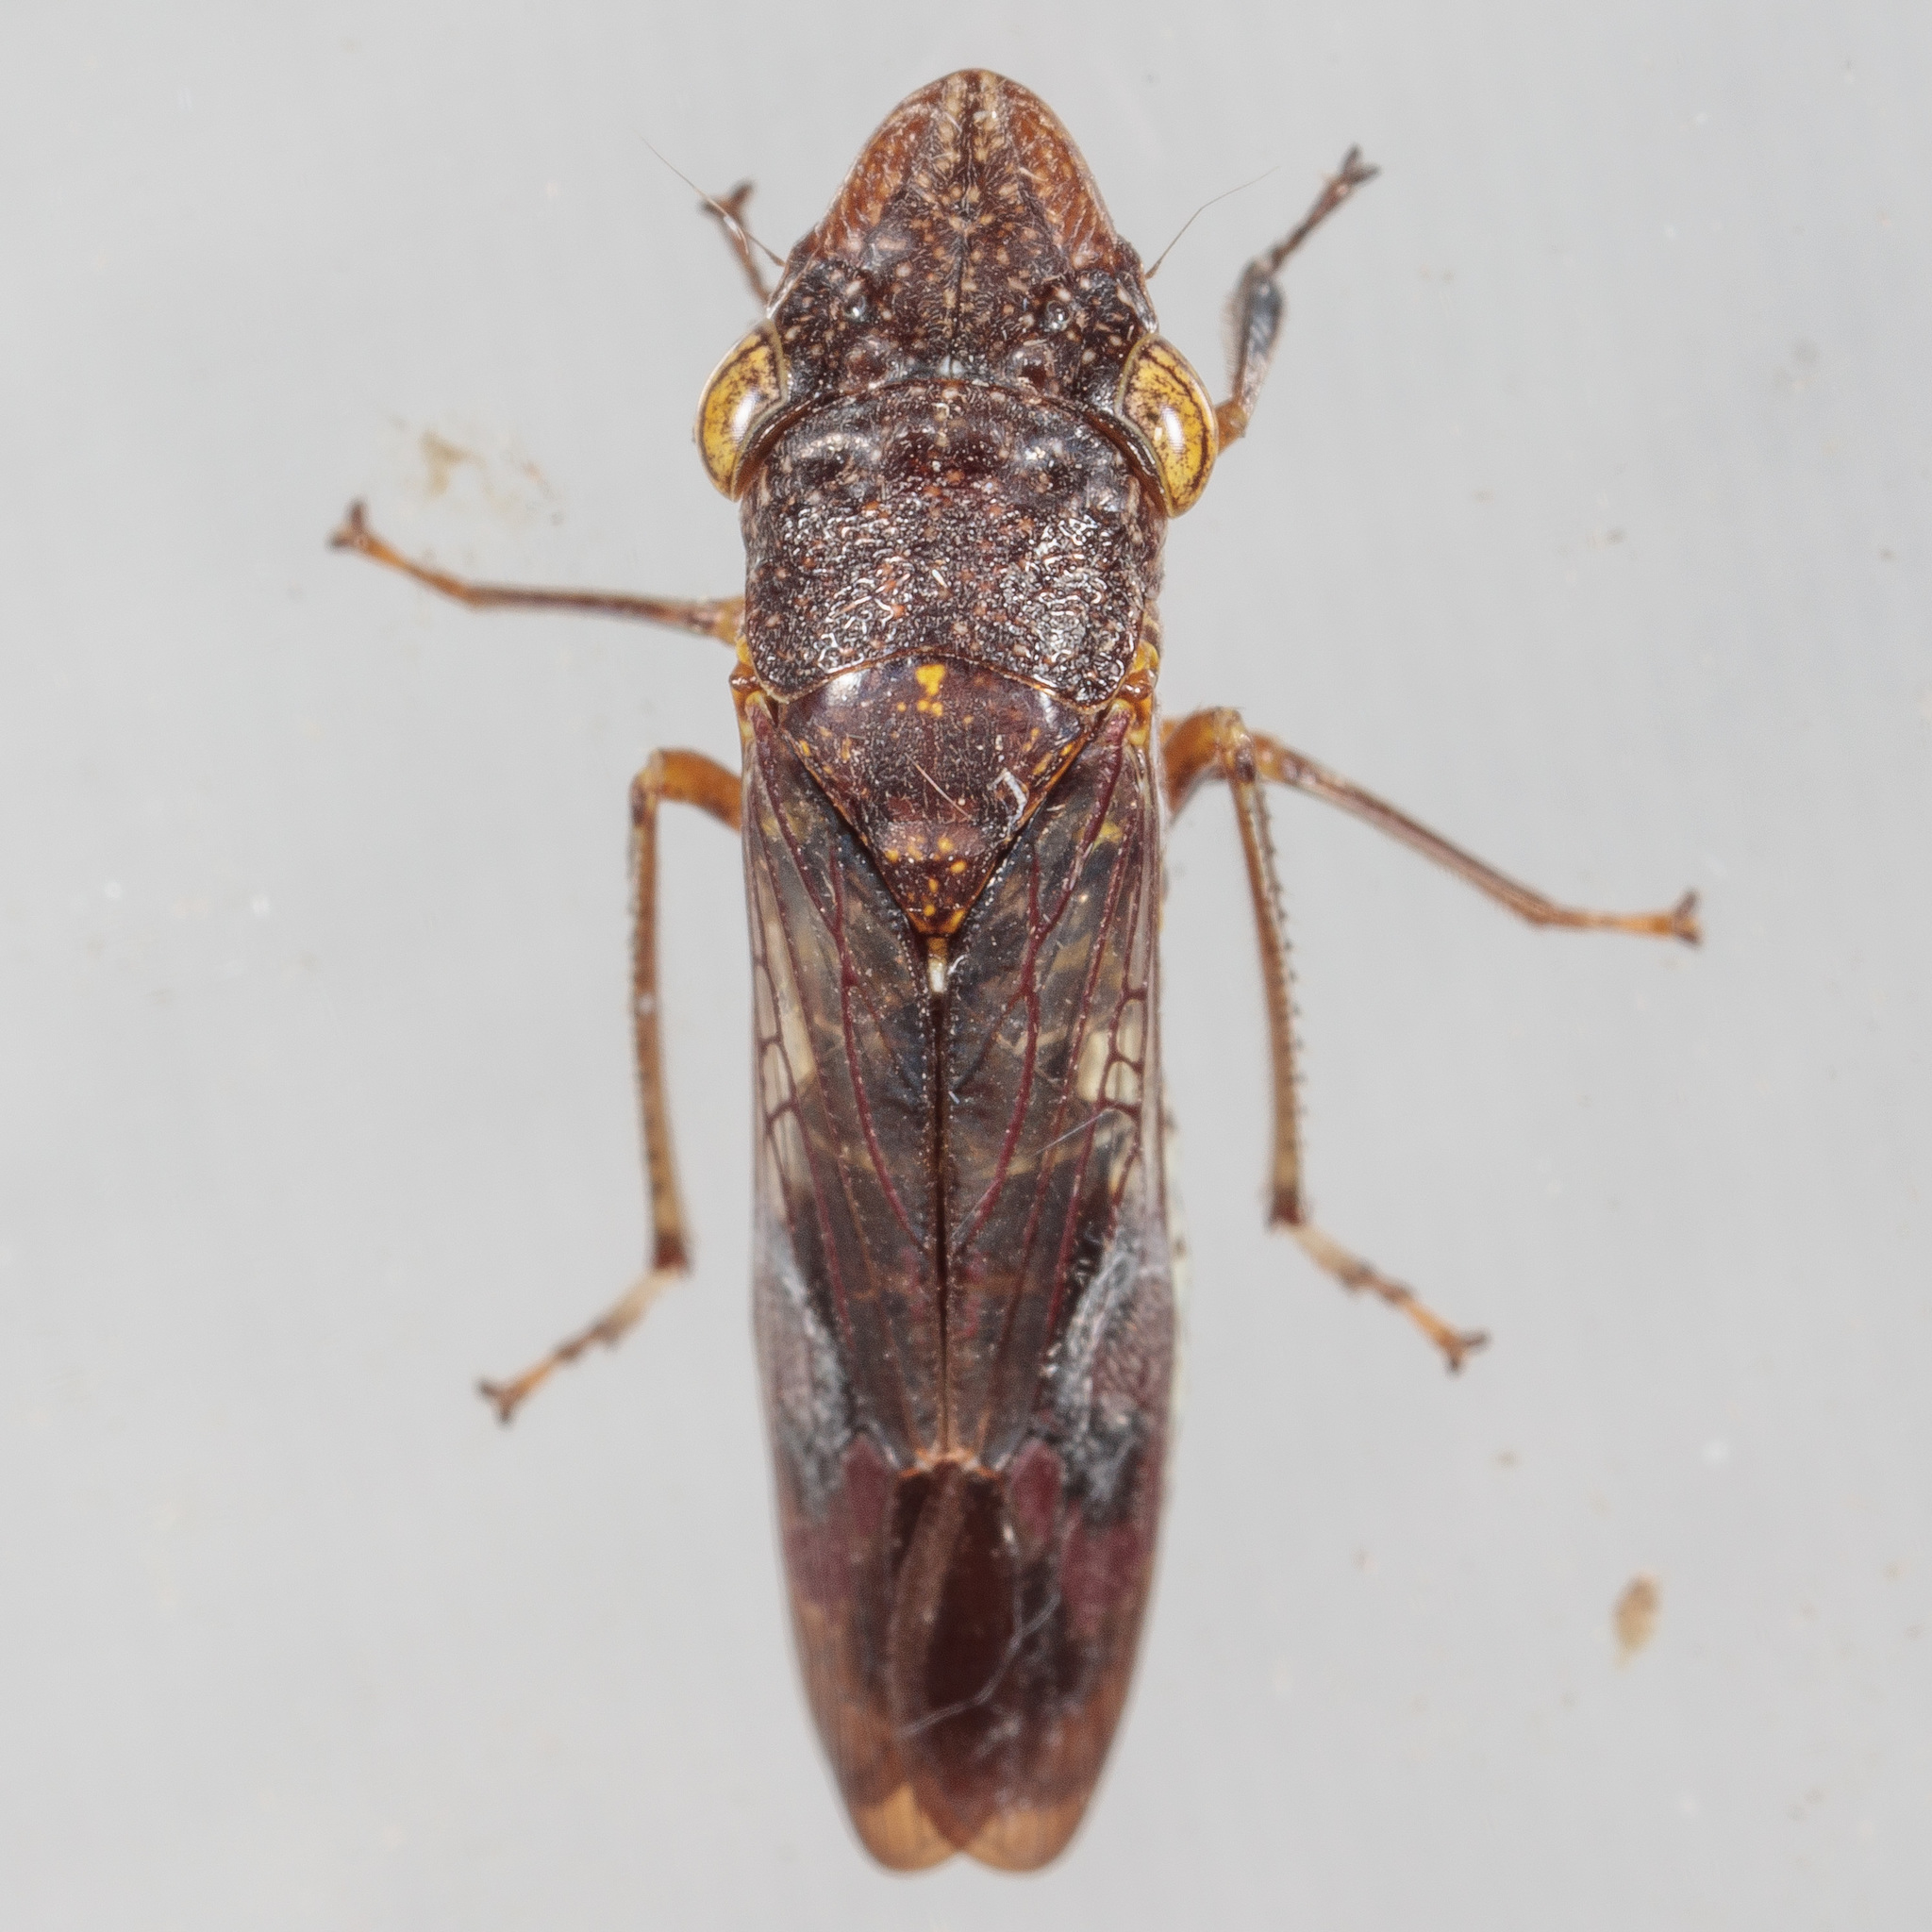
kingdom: Animalia
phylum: Arthropoda
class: Insecta
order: Hemiptera
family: Cicadellidae
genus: Homalodisca
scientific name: Homalodisca vitripennis
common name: Glassy-winged sharpshooter
